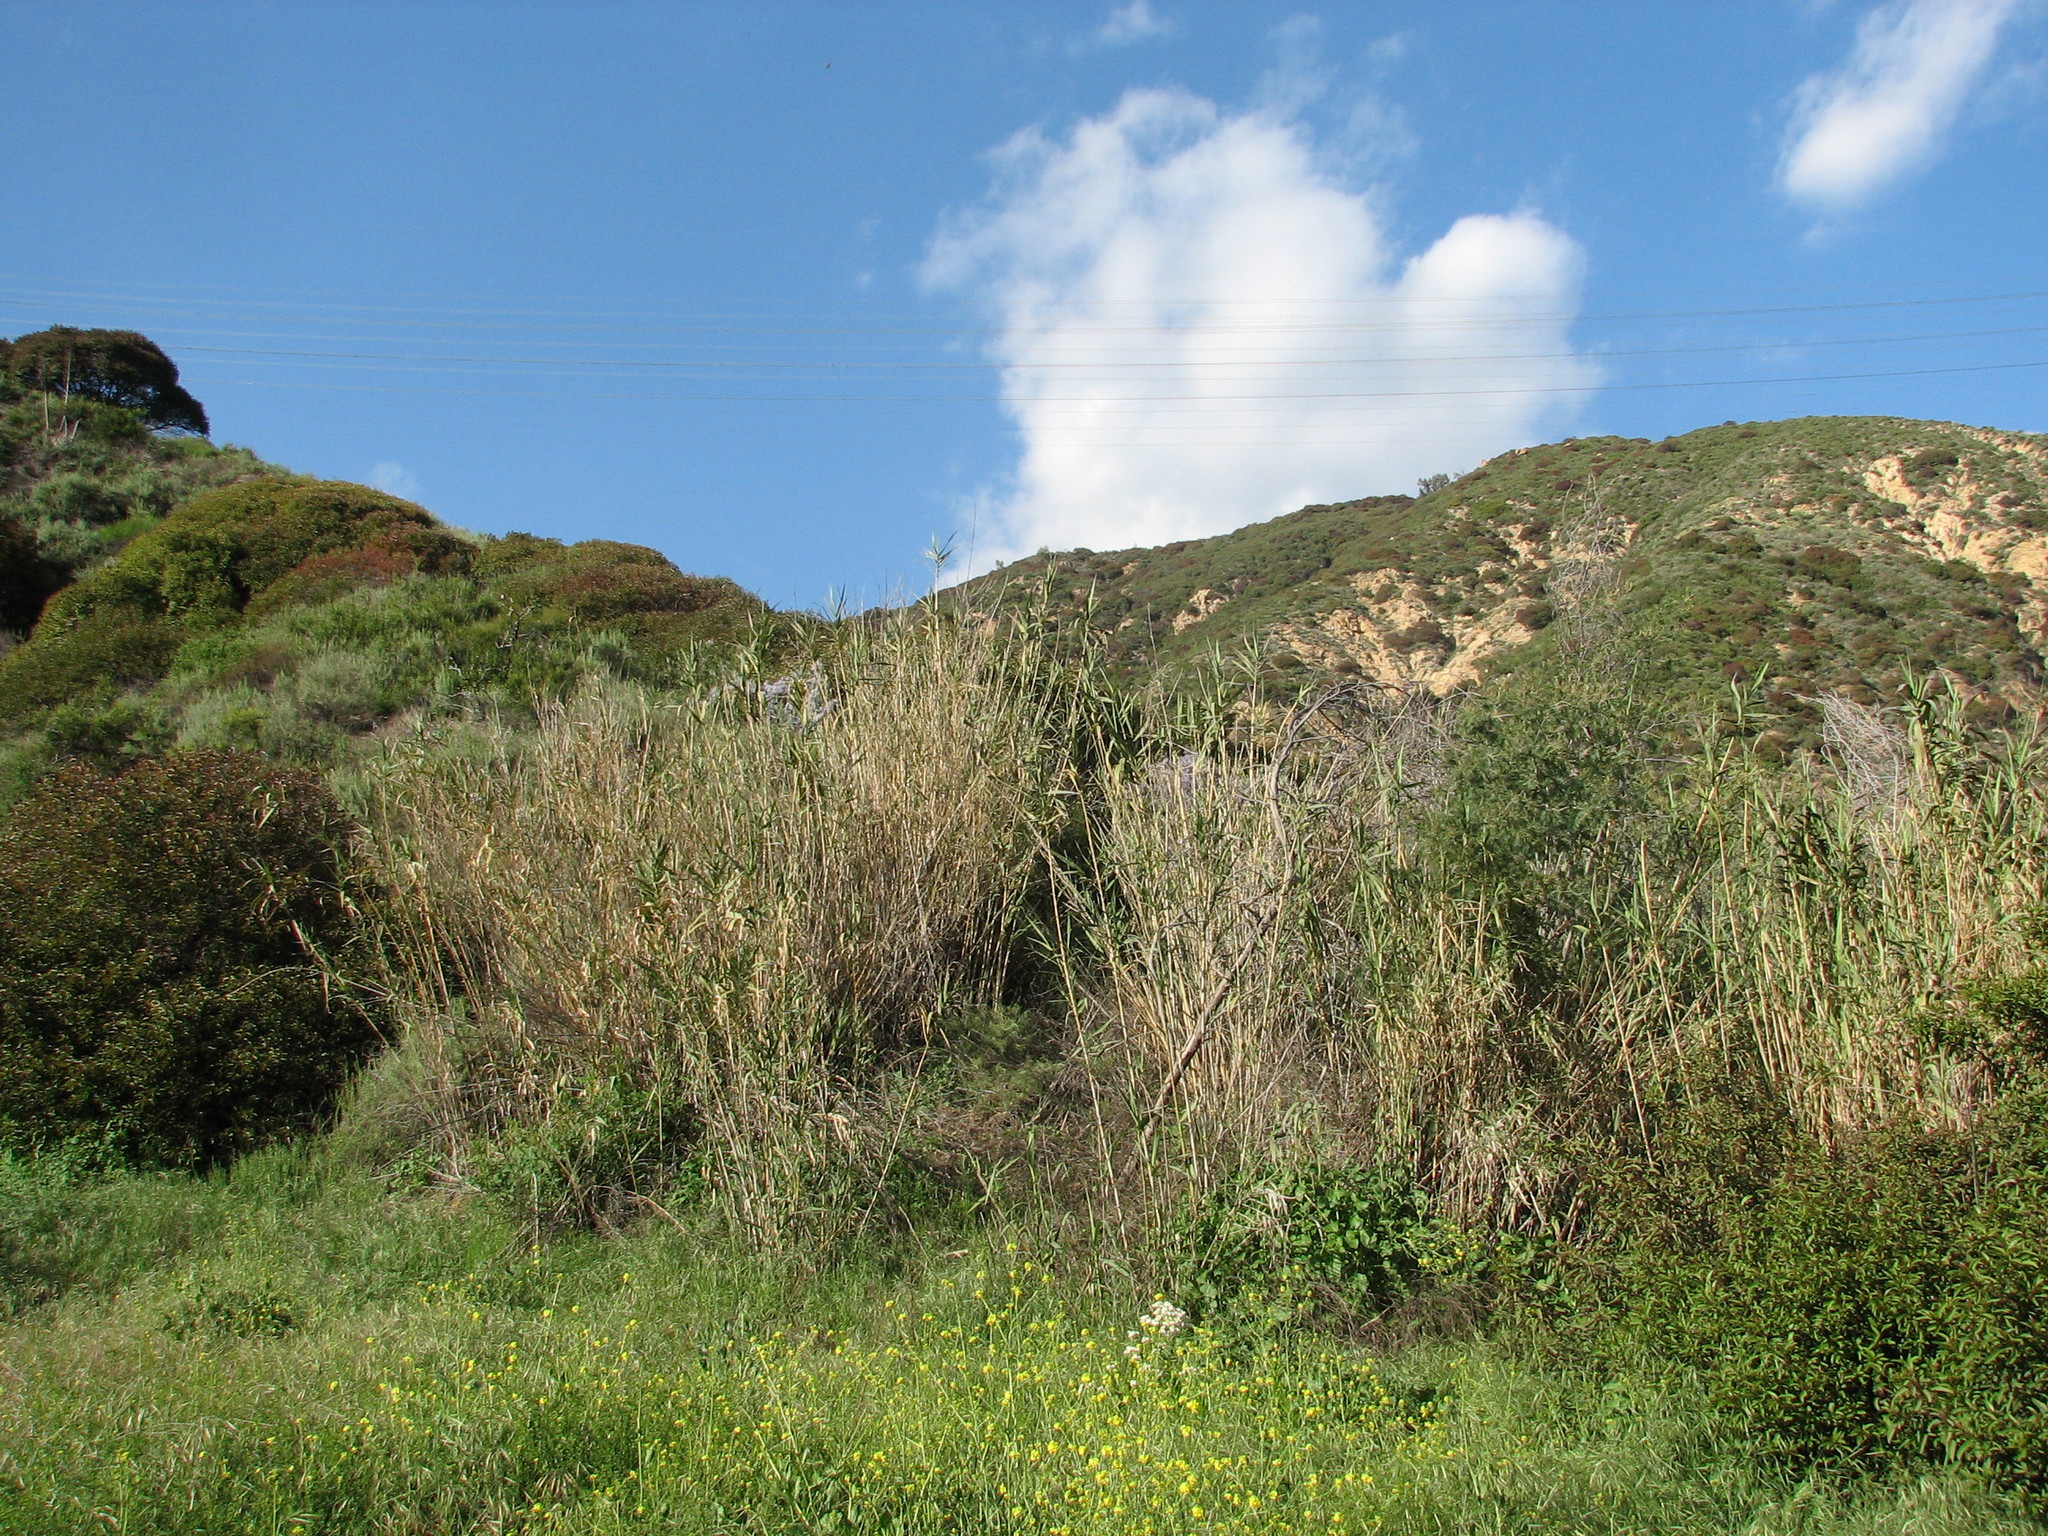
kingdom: Plantae
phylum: Tracheophyta
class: Magnoliopsida
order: Sapindales
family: Anacardiaceae
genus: Malosma
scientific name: Malosma laurina
